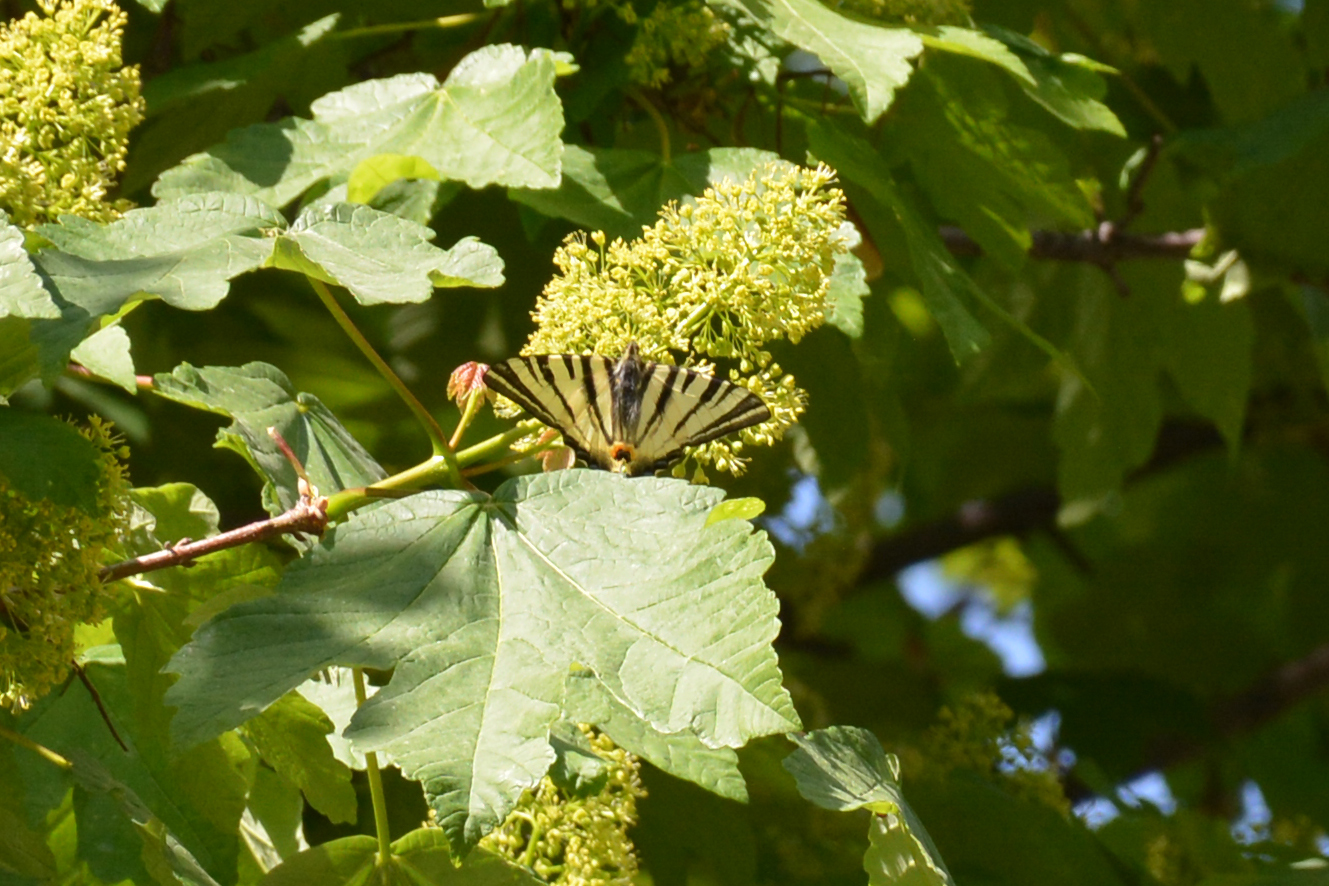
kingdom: Animalia
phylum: Arthropoda
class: Insecta
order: Lepidoptera
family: Papilionidae
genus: Iphiclides
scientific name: Iphiclides podalirius
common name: Scarce swallowtail
